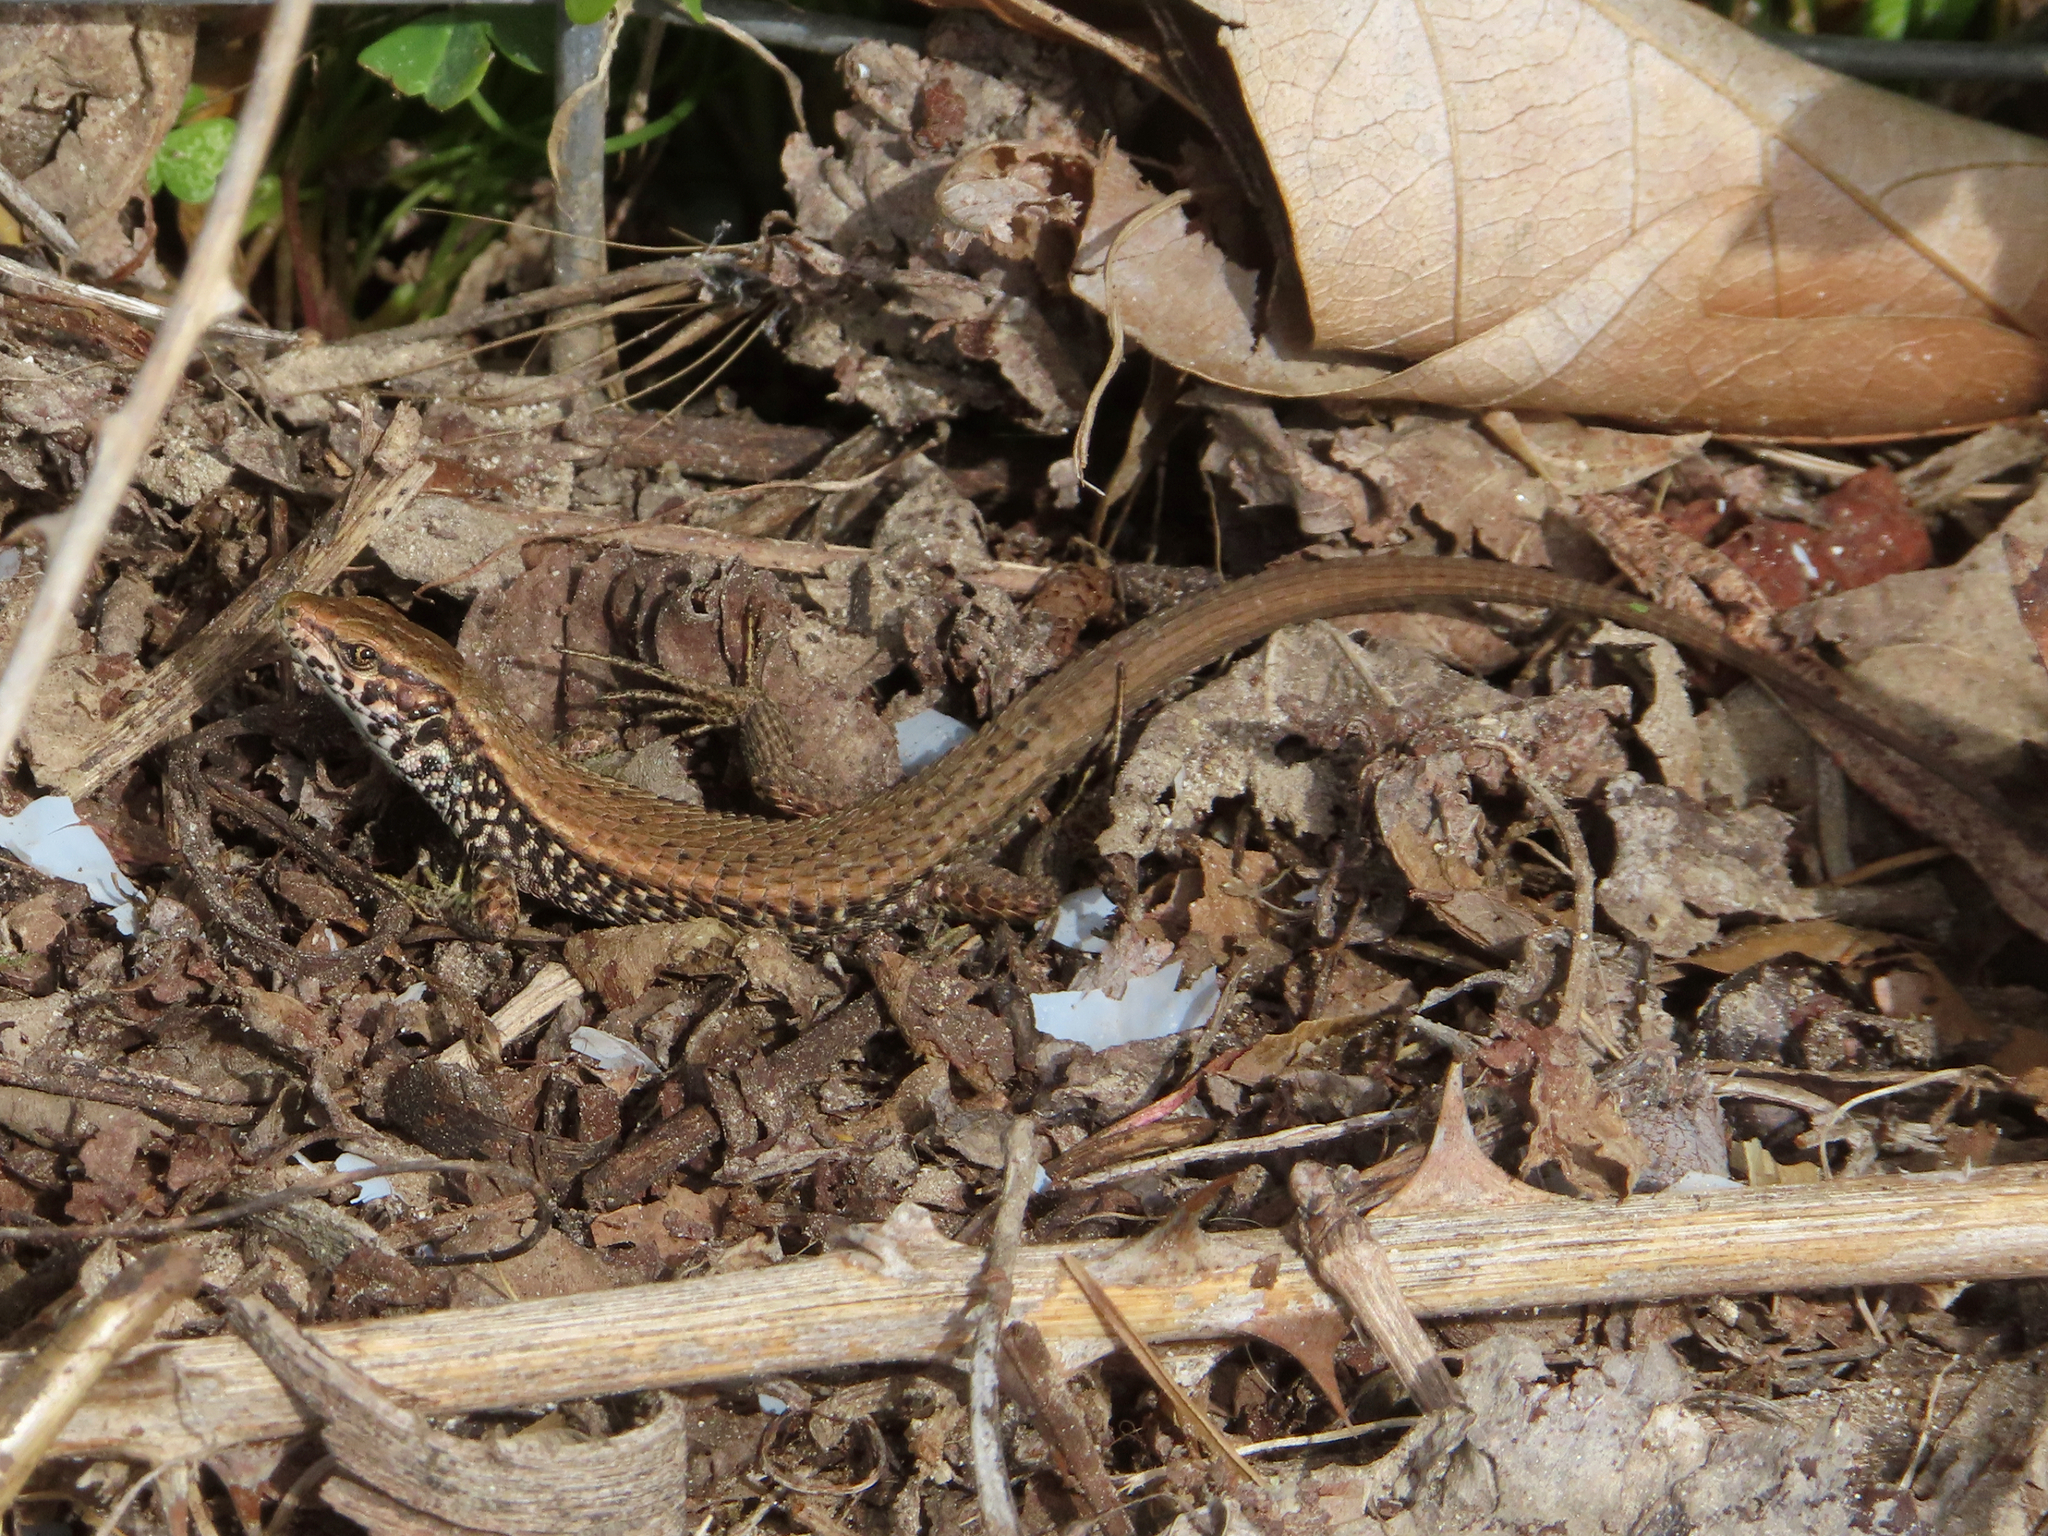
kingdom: Animalia
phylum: Chordata
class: Squamata
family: Lacertidae
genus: Algyroides
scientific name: Algyroides moreoticus
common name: Greek algyroides
